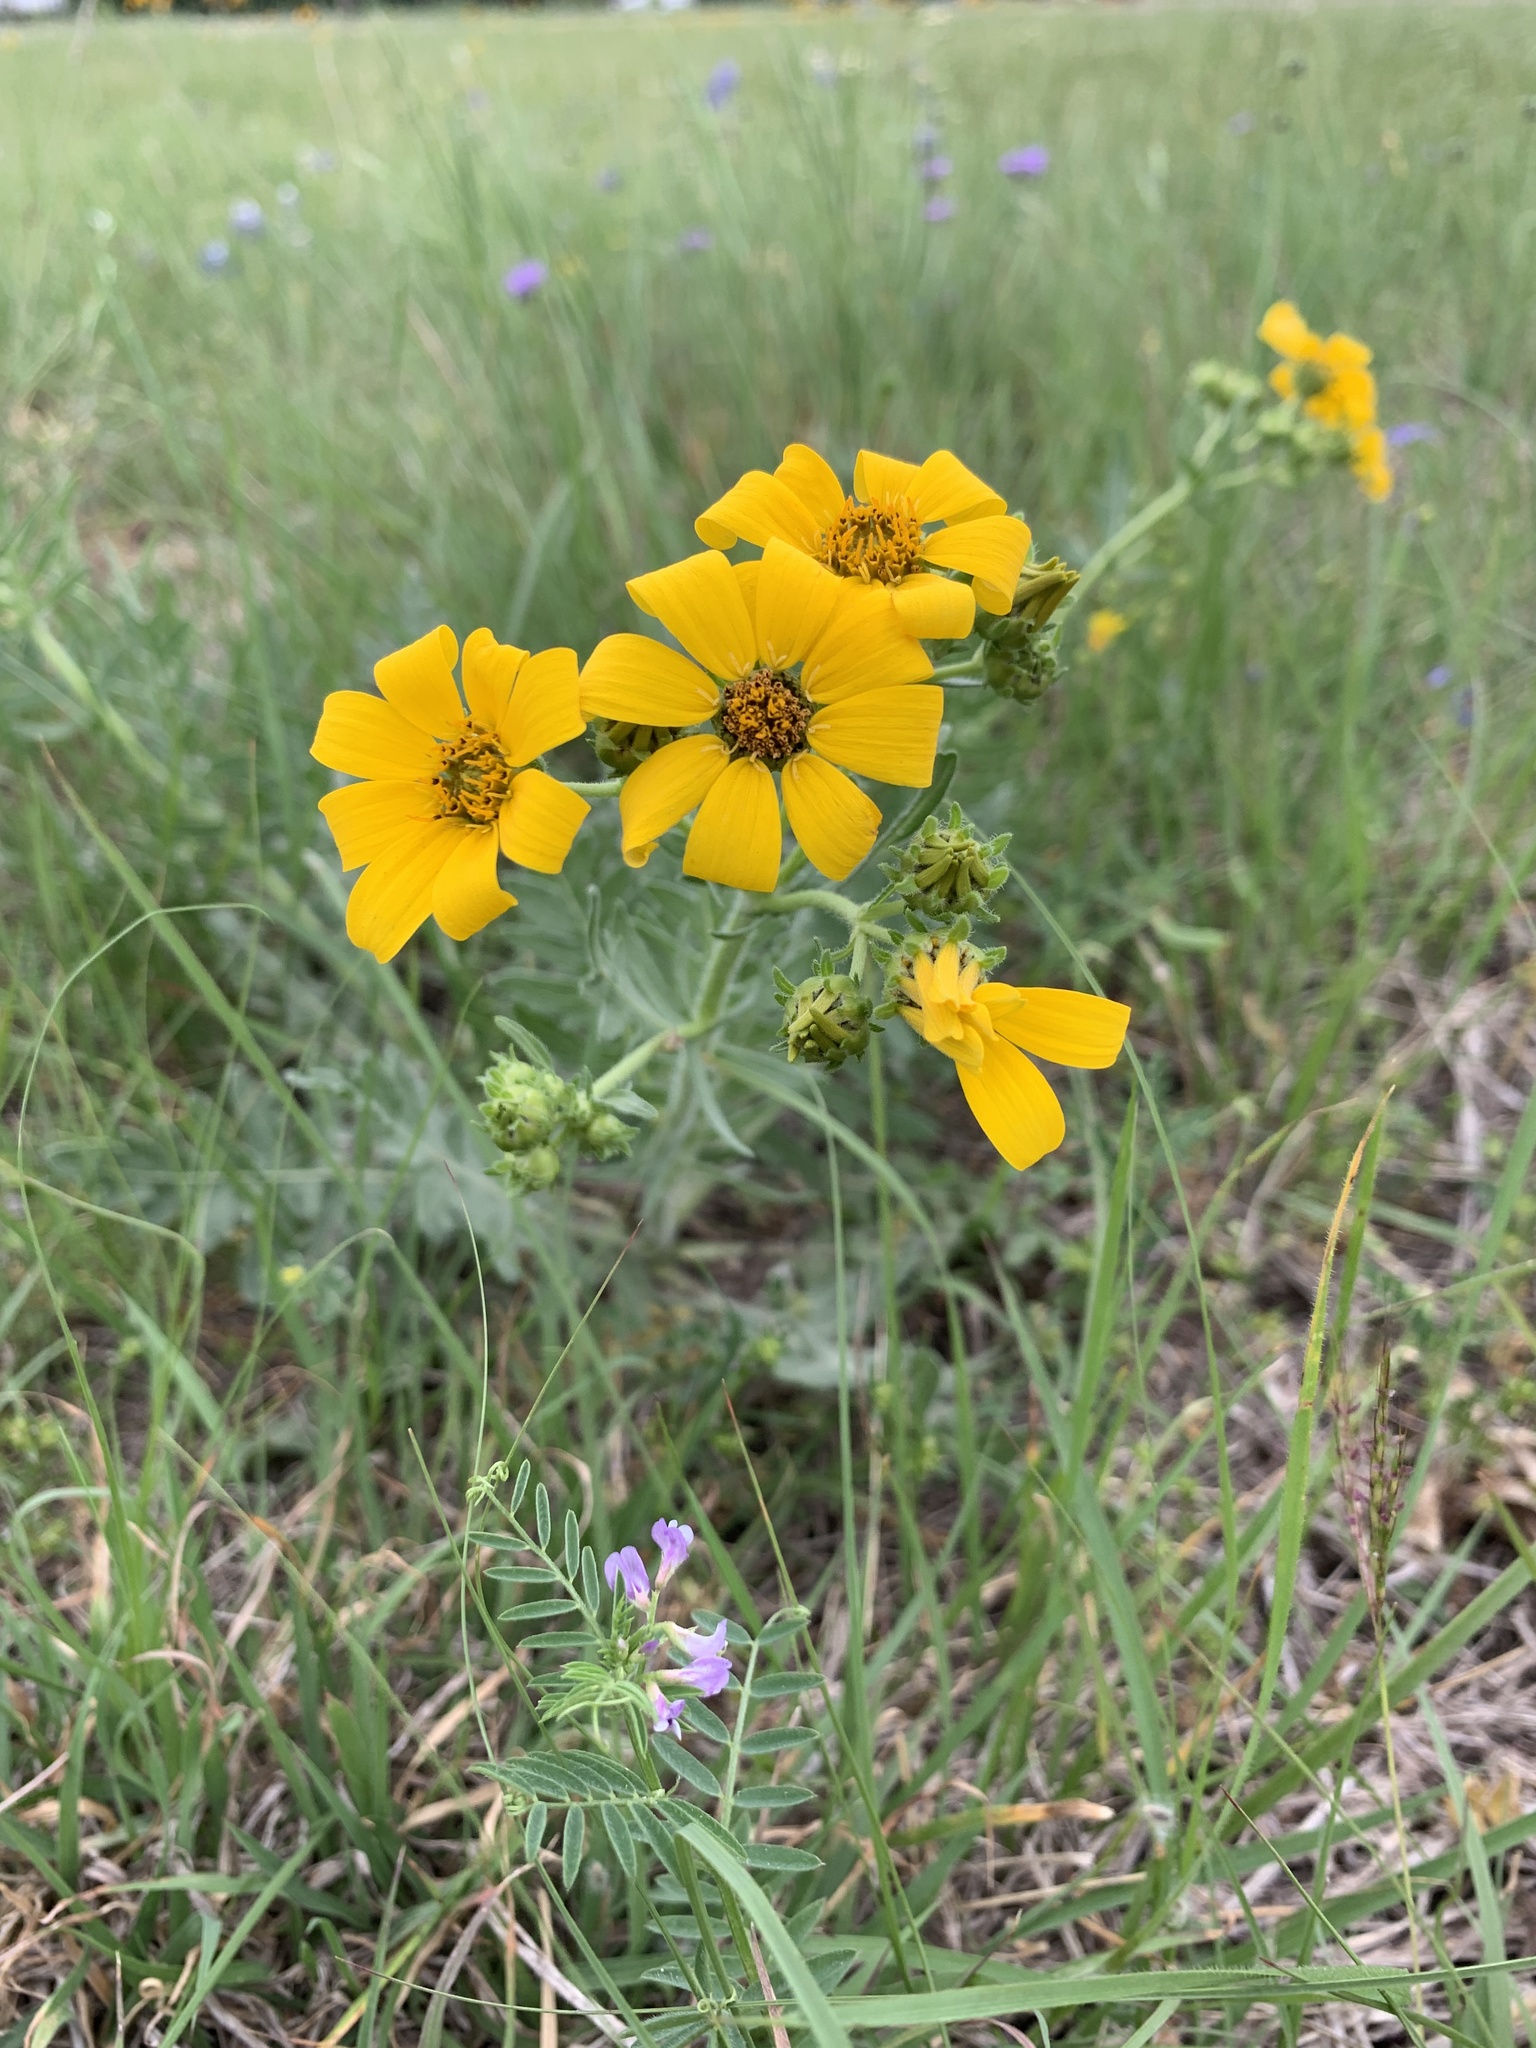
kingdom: Plantae
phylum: Tracheophyta
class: Magnoliopsida
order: Asterales
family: Asteraceae
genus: Engelmannia
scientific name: Engelmannia peristenia
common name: Engelmann's daisy
